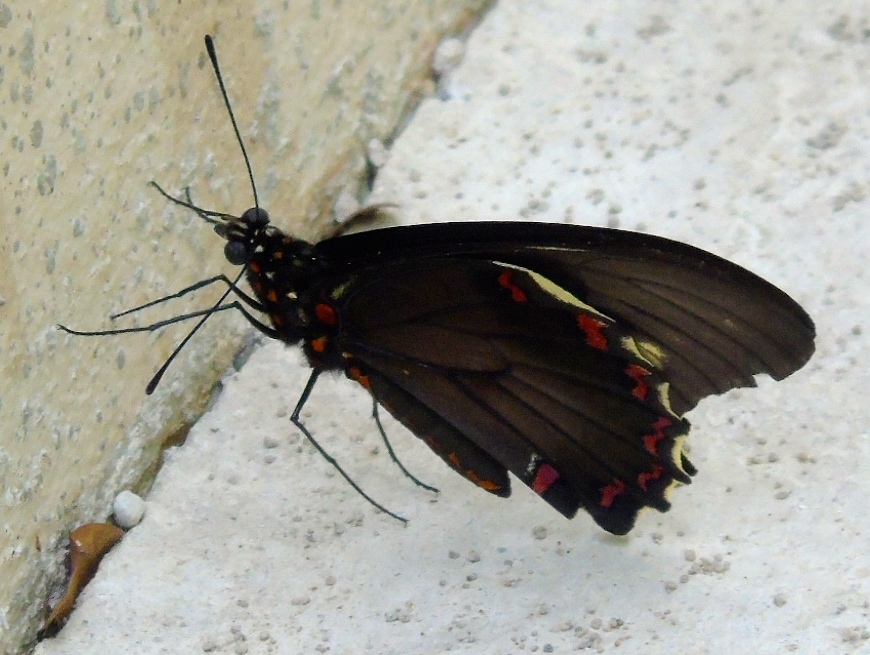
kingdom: Animalia
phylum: Arthropoda
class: Insecta
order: Lepidoptera
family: Papilionidae
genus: Battus
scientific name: Battus polydamas
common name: Polydamas swallowtail
